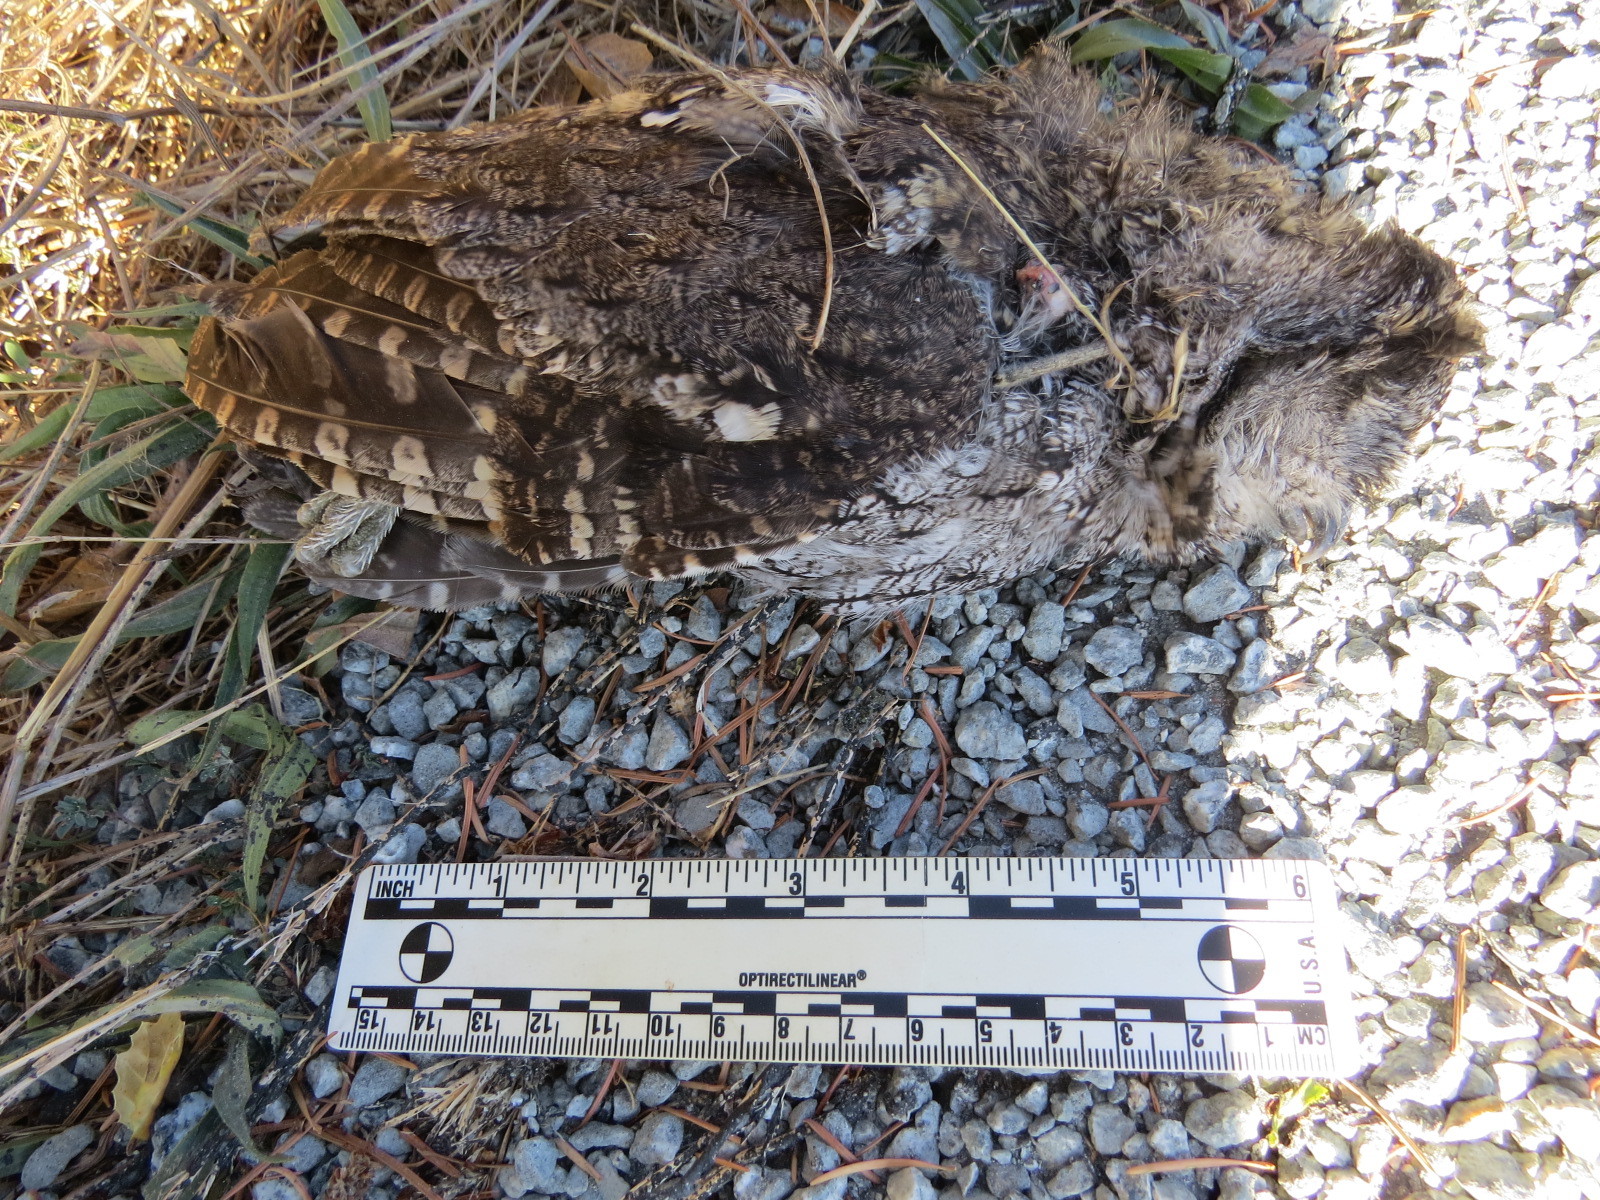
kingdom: Animalia
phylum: Chordata
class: Aves
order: Strigiformes
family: Strigidae
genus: Megascops
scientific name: Megascops kennicottii
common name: Western screech-owl
